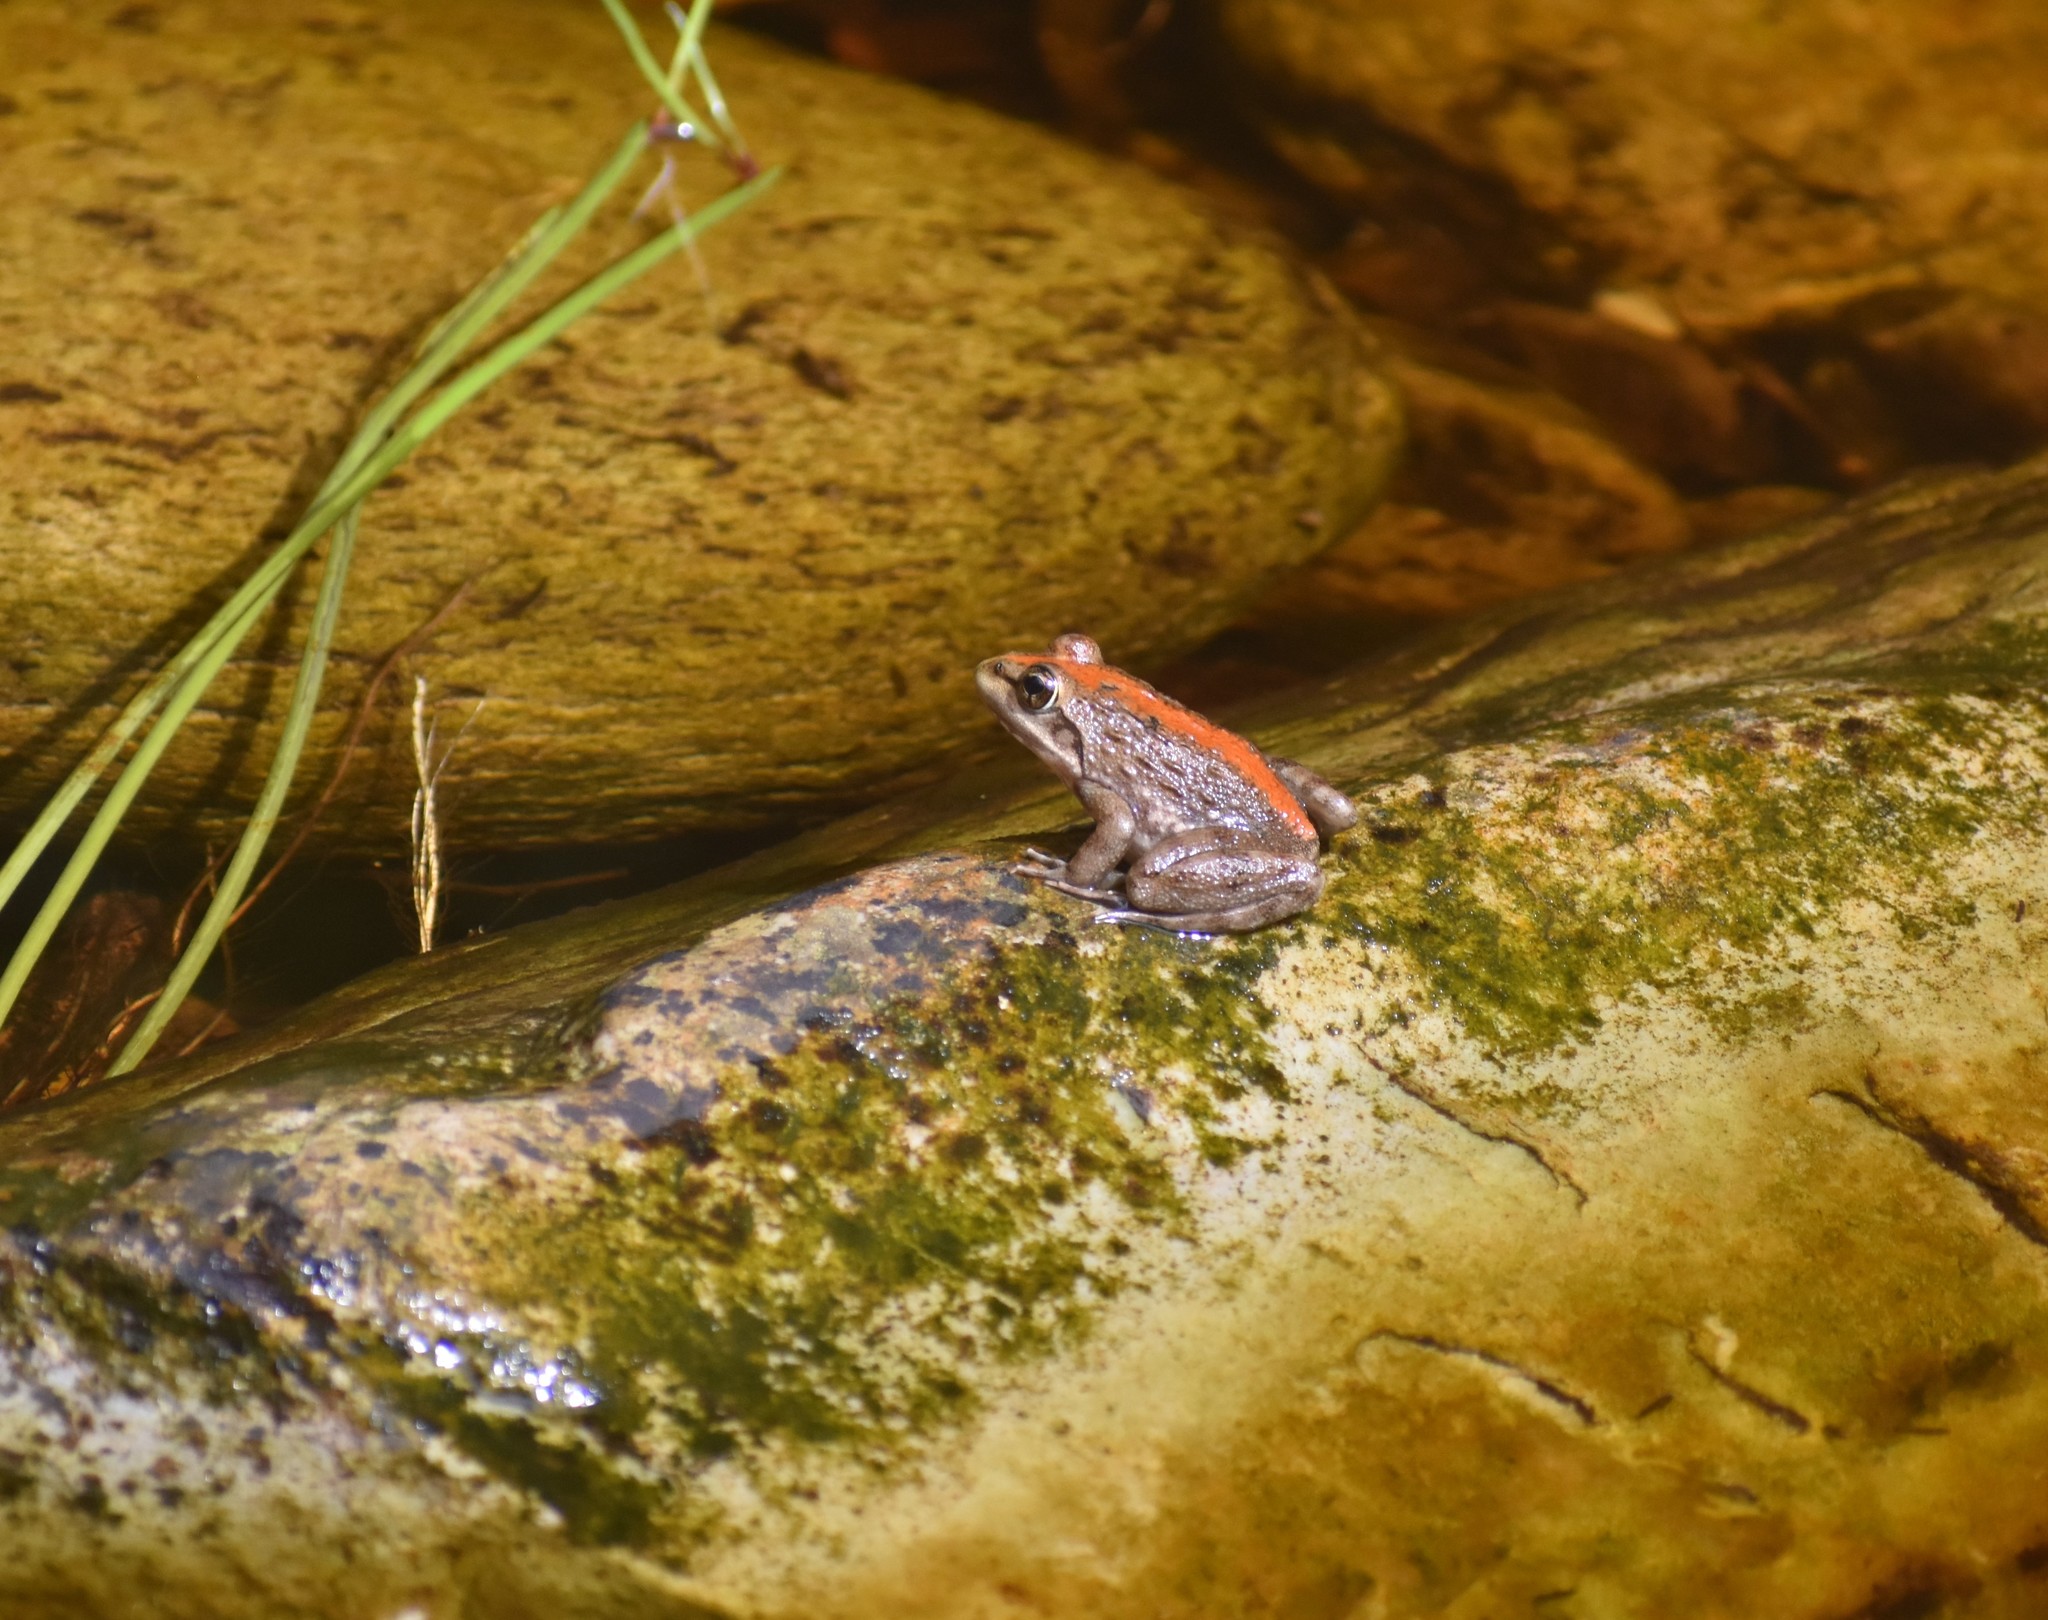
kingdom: Animalia
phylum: Chordata
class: Amphibia
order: Anura
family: Pyxicephalidae
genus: Amietia
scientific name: Amietia fuscigula
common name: Cape rana
